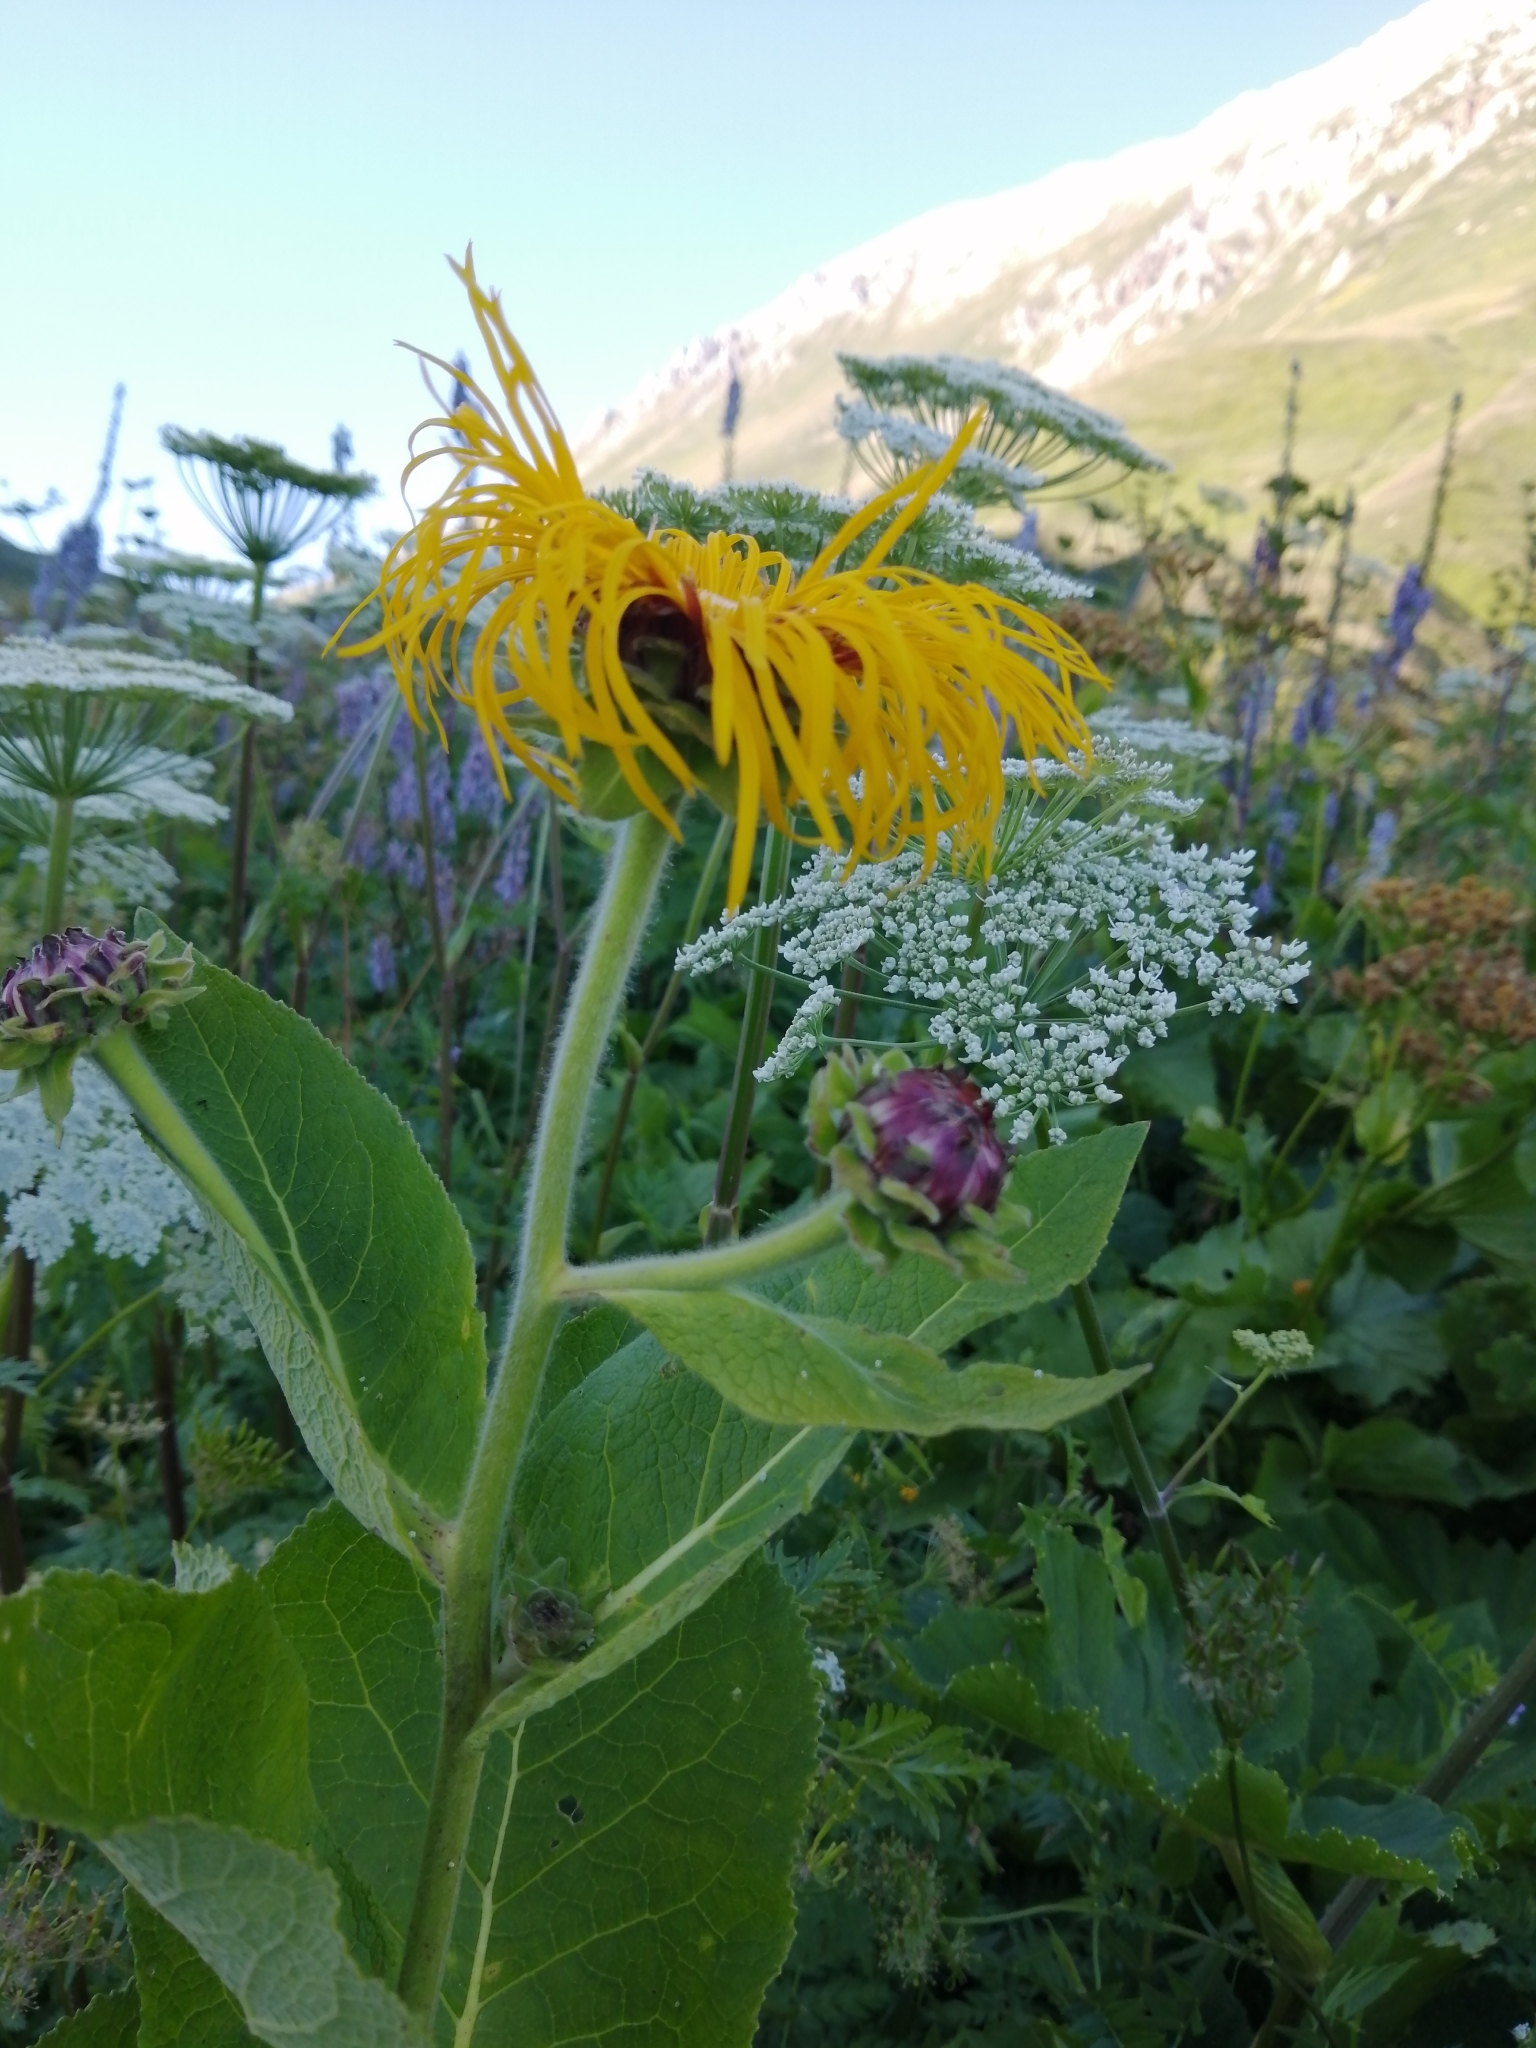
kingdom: Plantae
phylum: Tracheophyta
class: Magnoliopsida
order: Asterales
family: Asteraceae
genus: Inula
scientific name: Inula magnifica
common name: Giant fleabane
